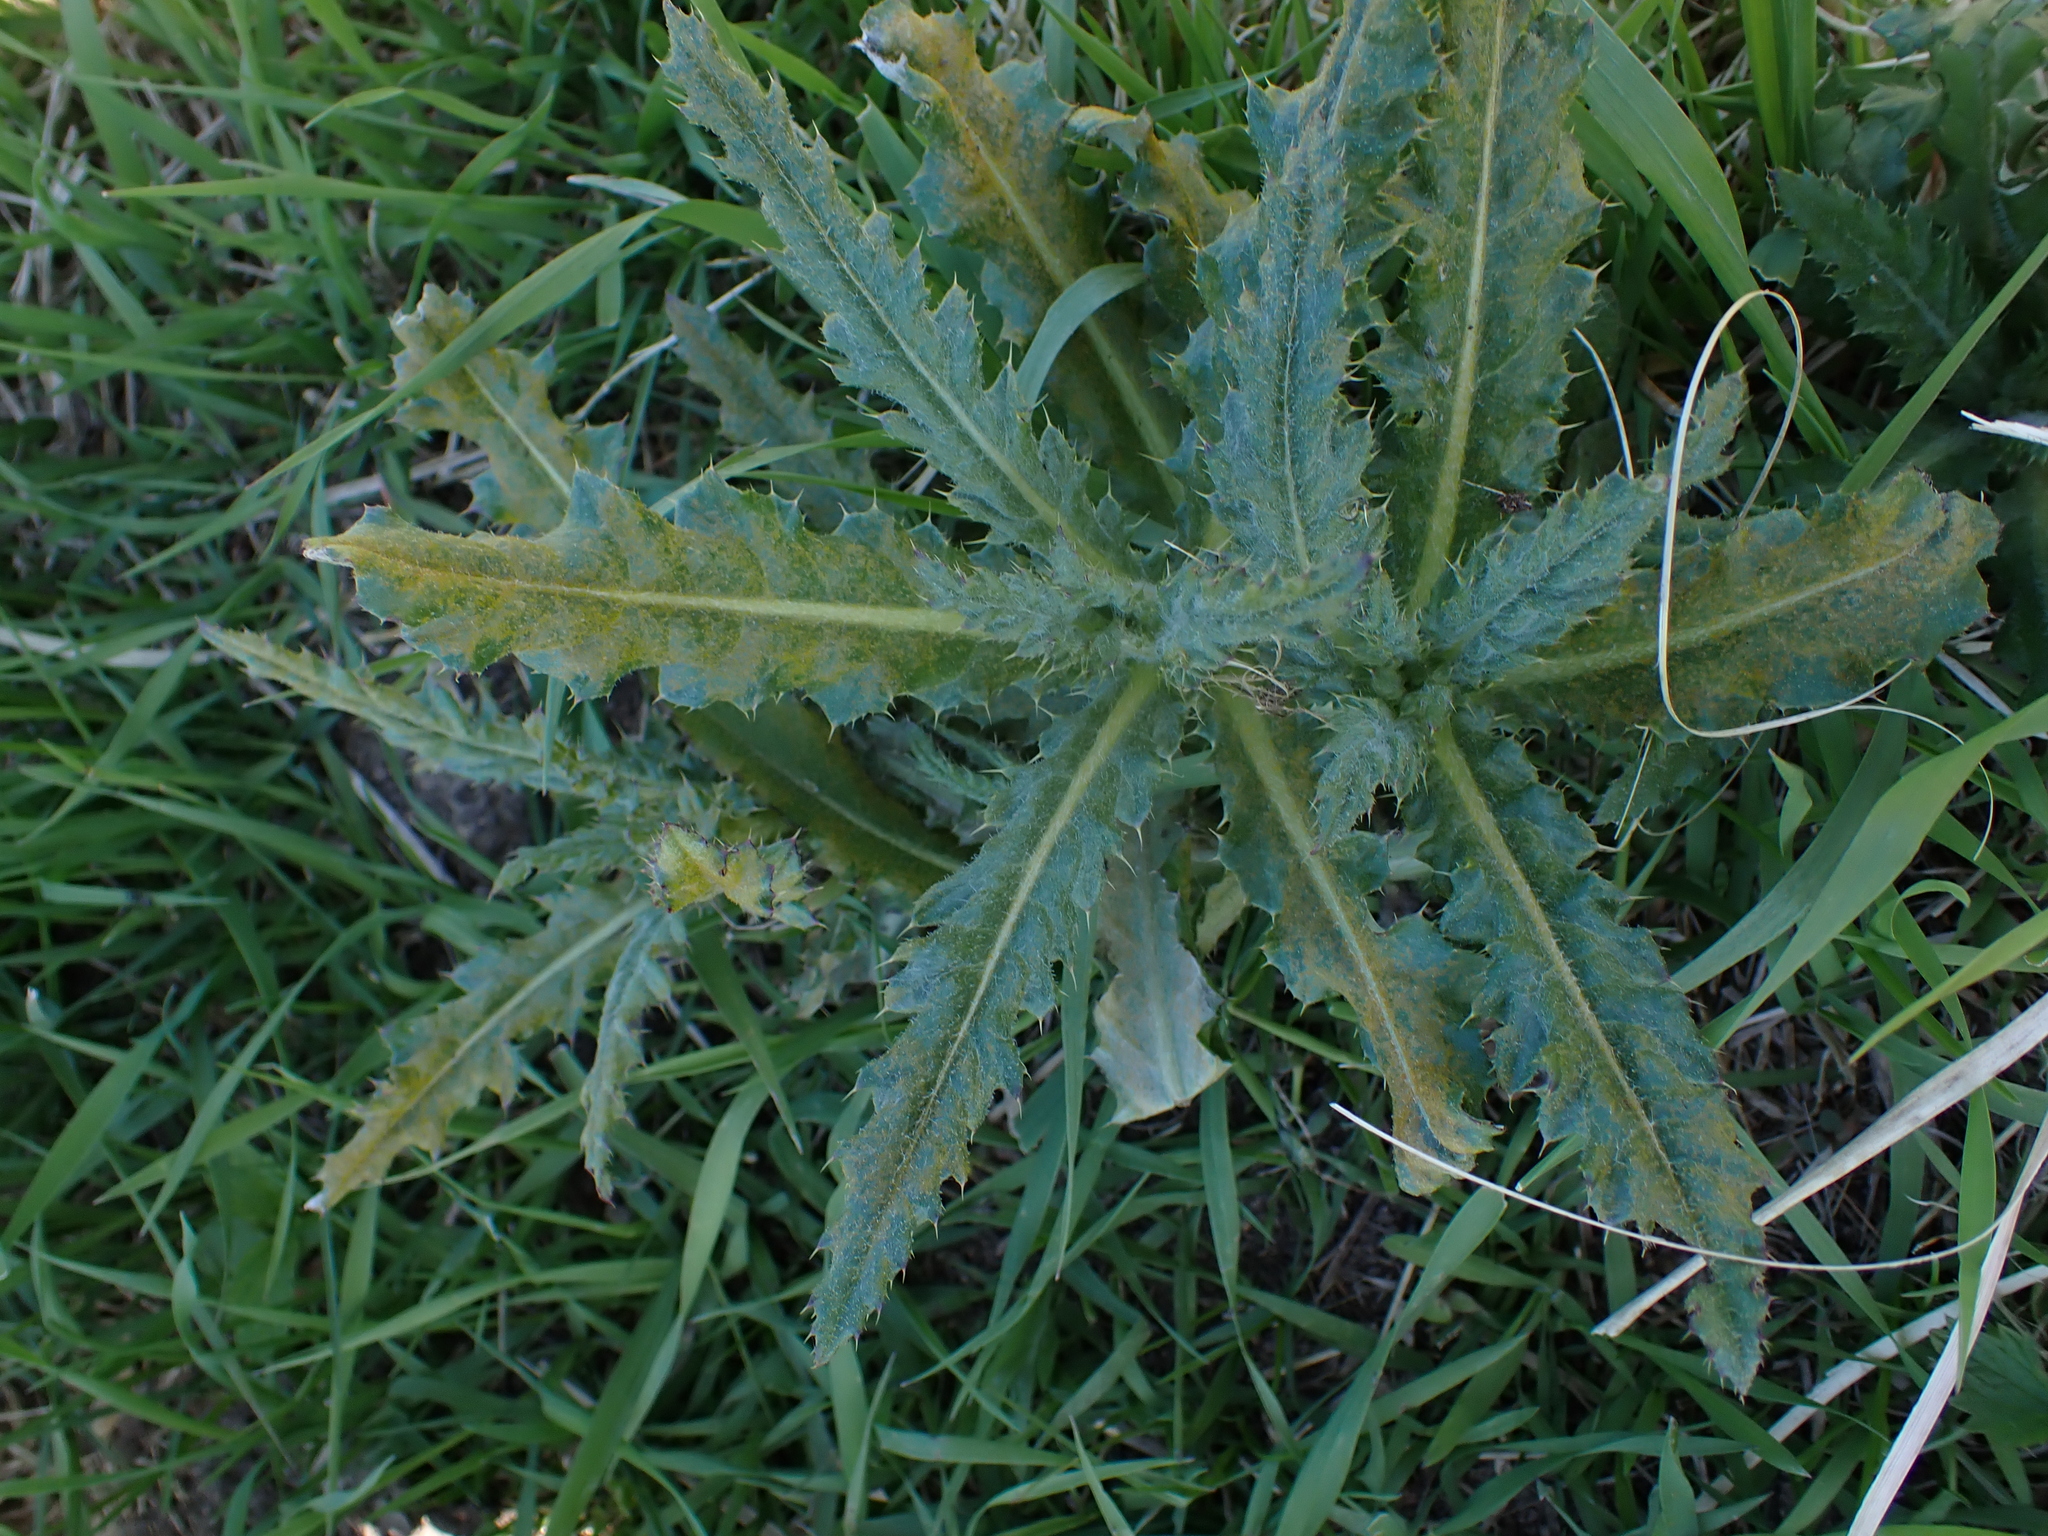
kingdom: Plantae
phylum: Tracheophyta
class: Magnoliopsida
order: Asterales
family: Asteraceae
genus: Cirsium
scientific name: Cirsium arvense
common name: Creeping thistle
